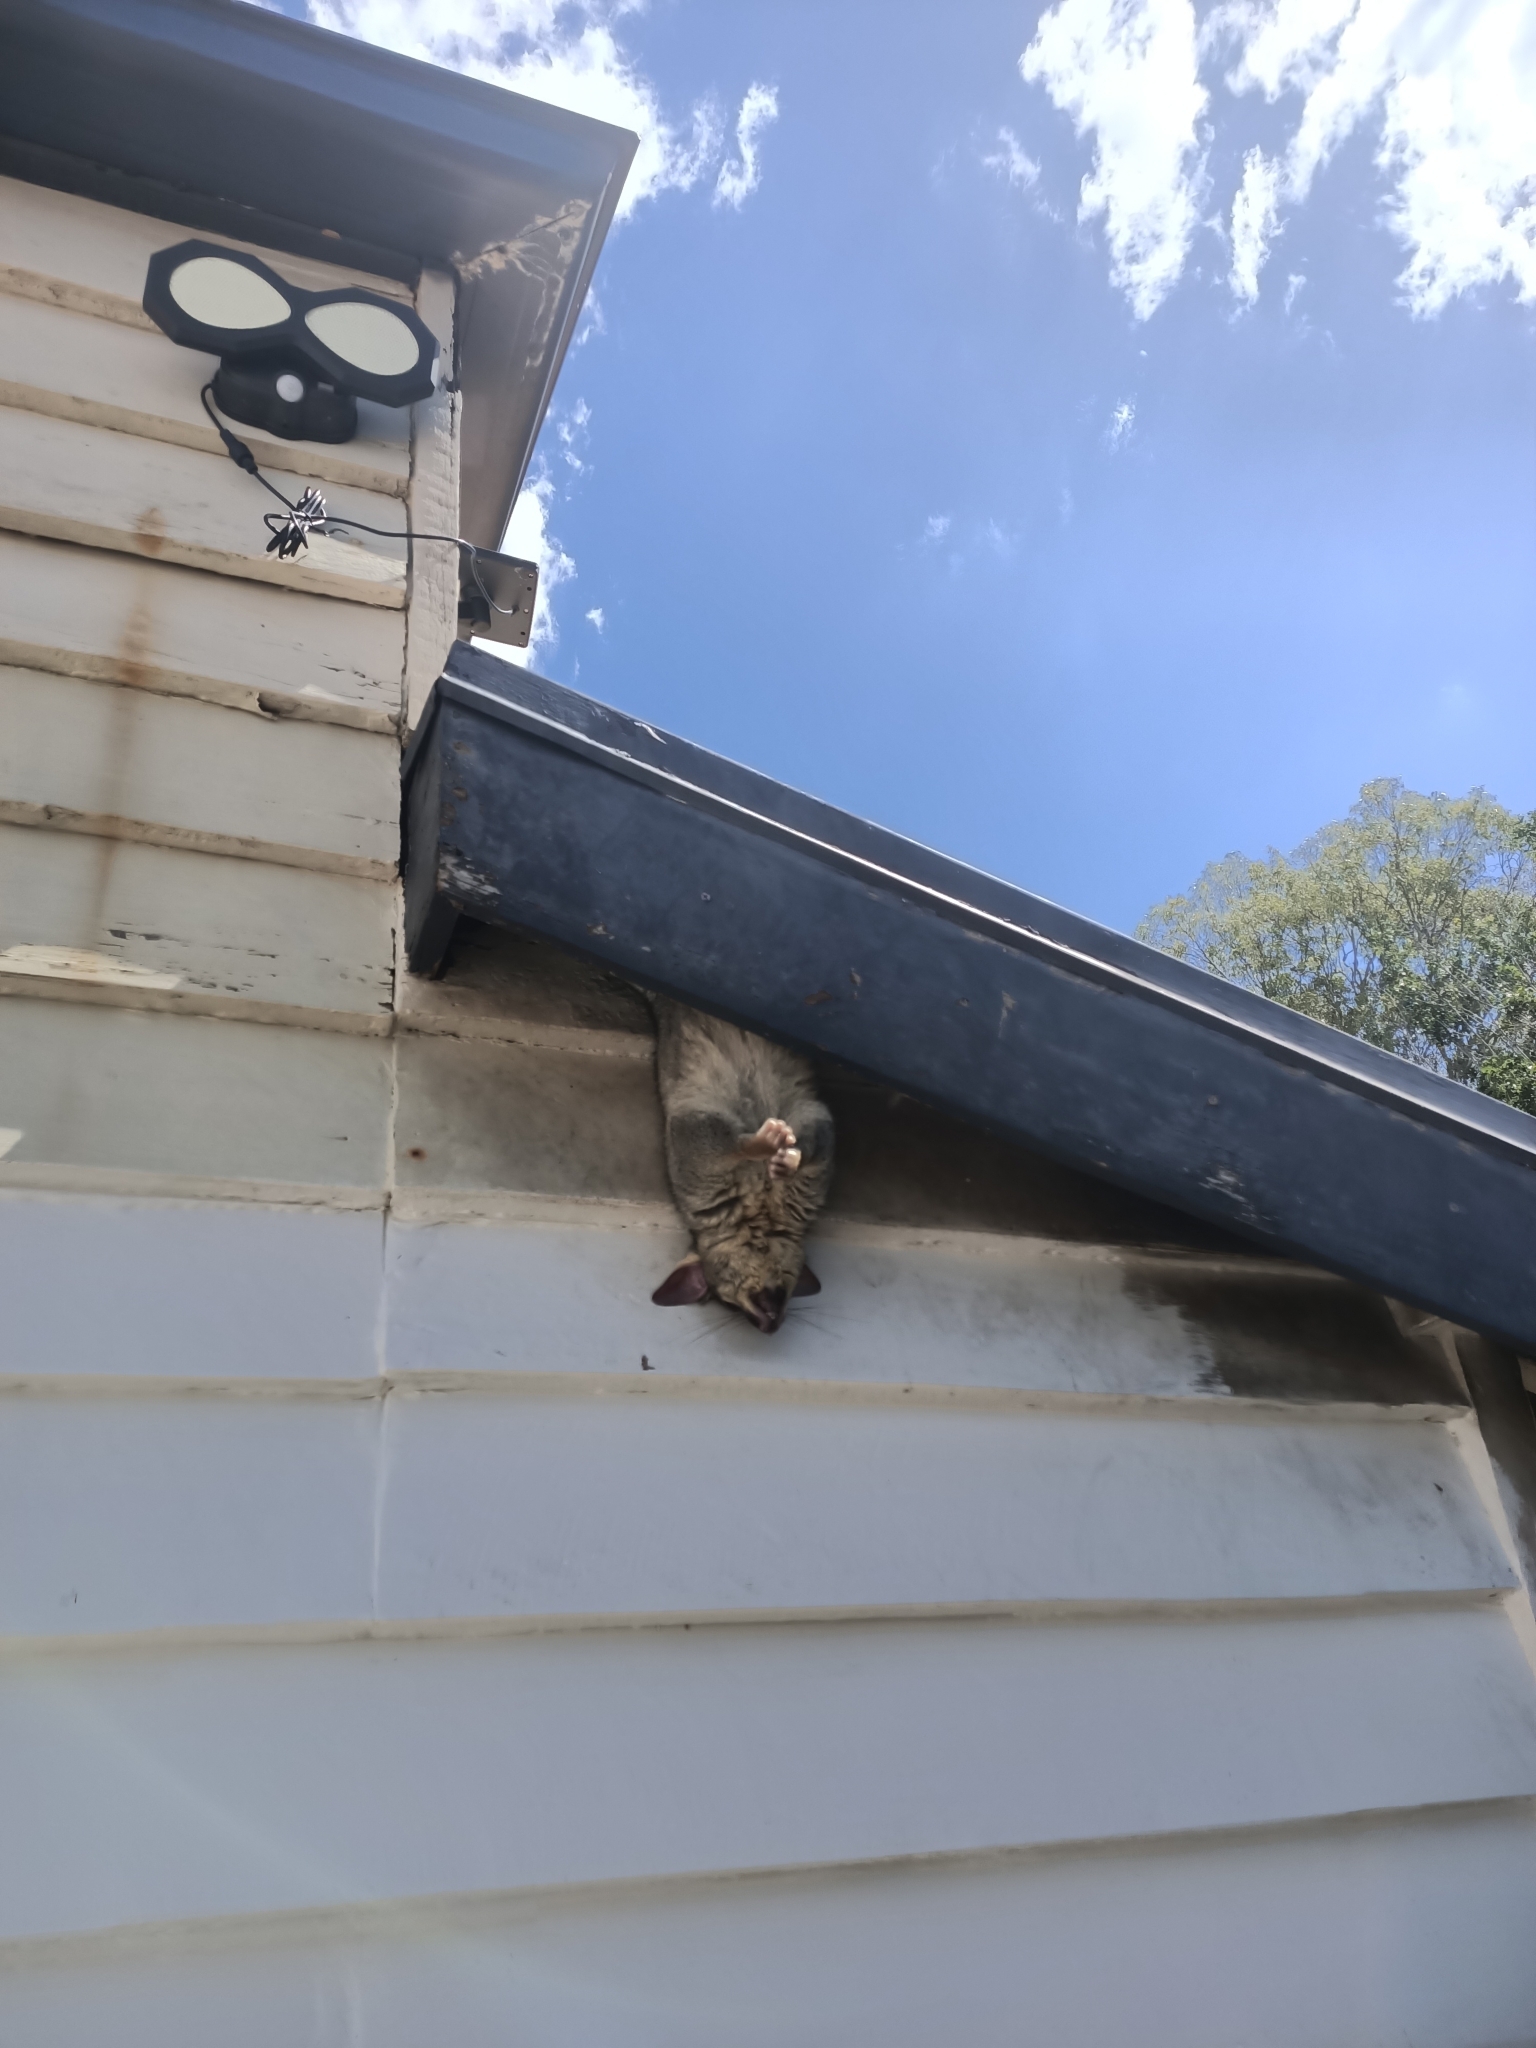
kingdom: Animalia
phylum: Chordata
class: Mammalia
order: Diprotodontia
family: Phalangeridae
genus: Trichosurus
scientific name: Trichosurus vulpecula
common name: Common brushtail
